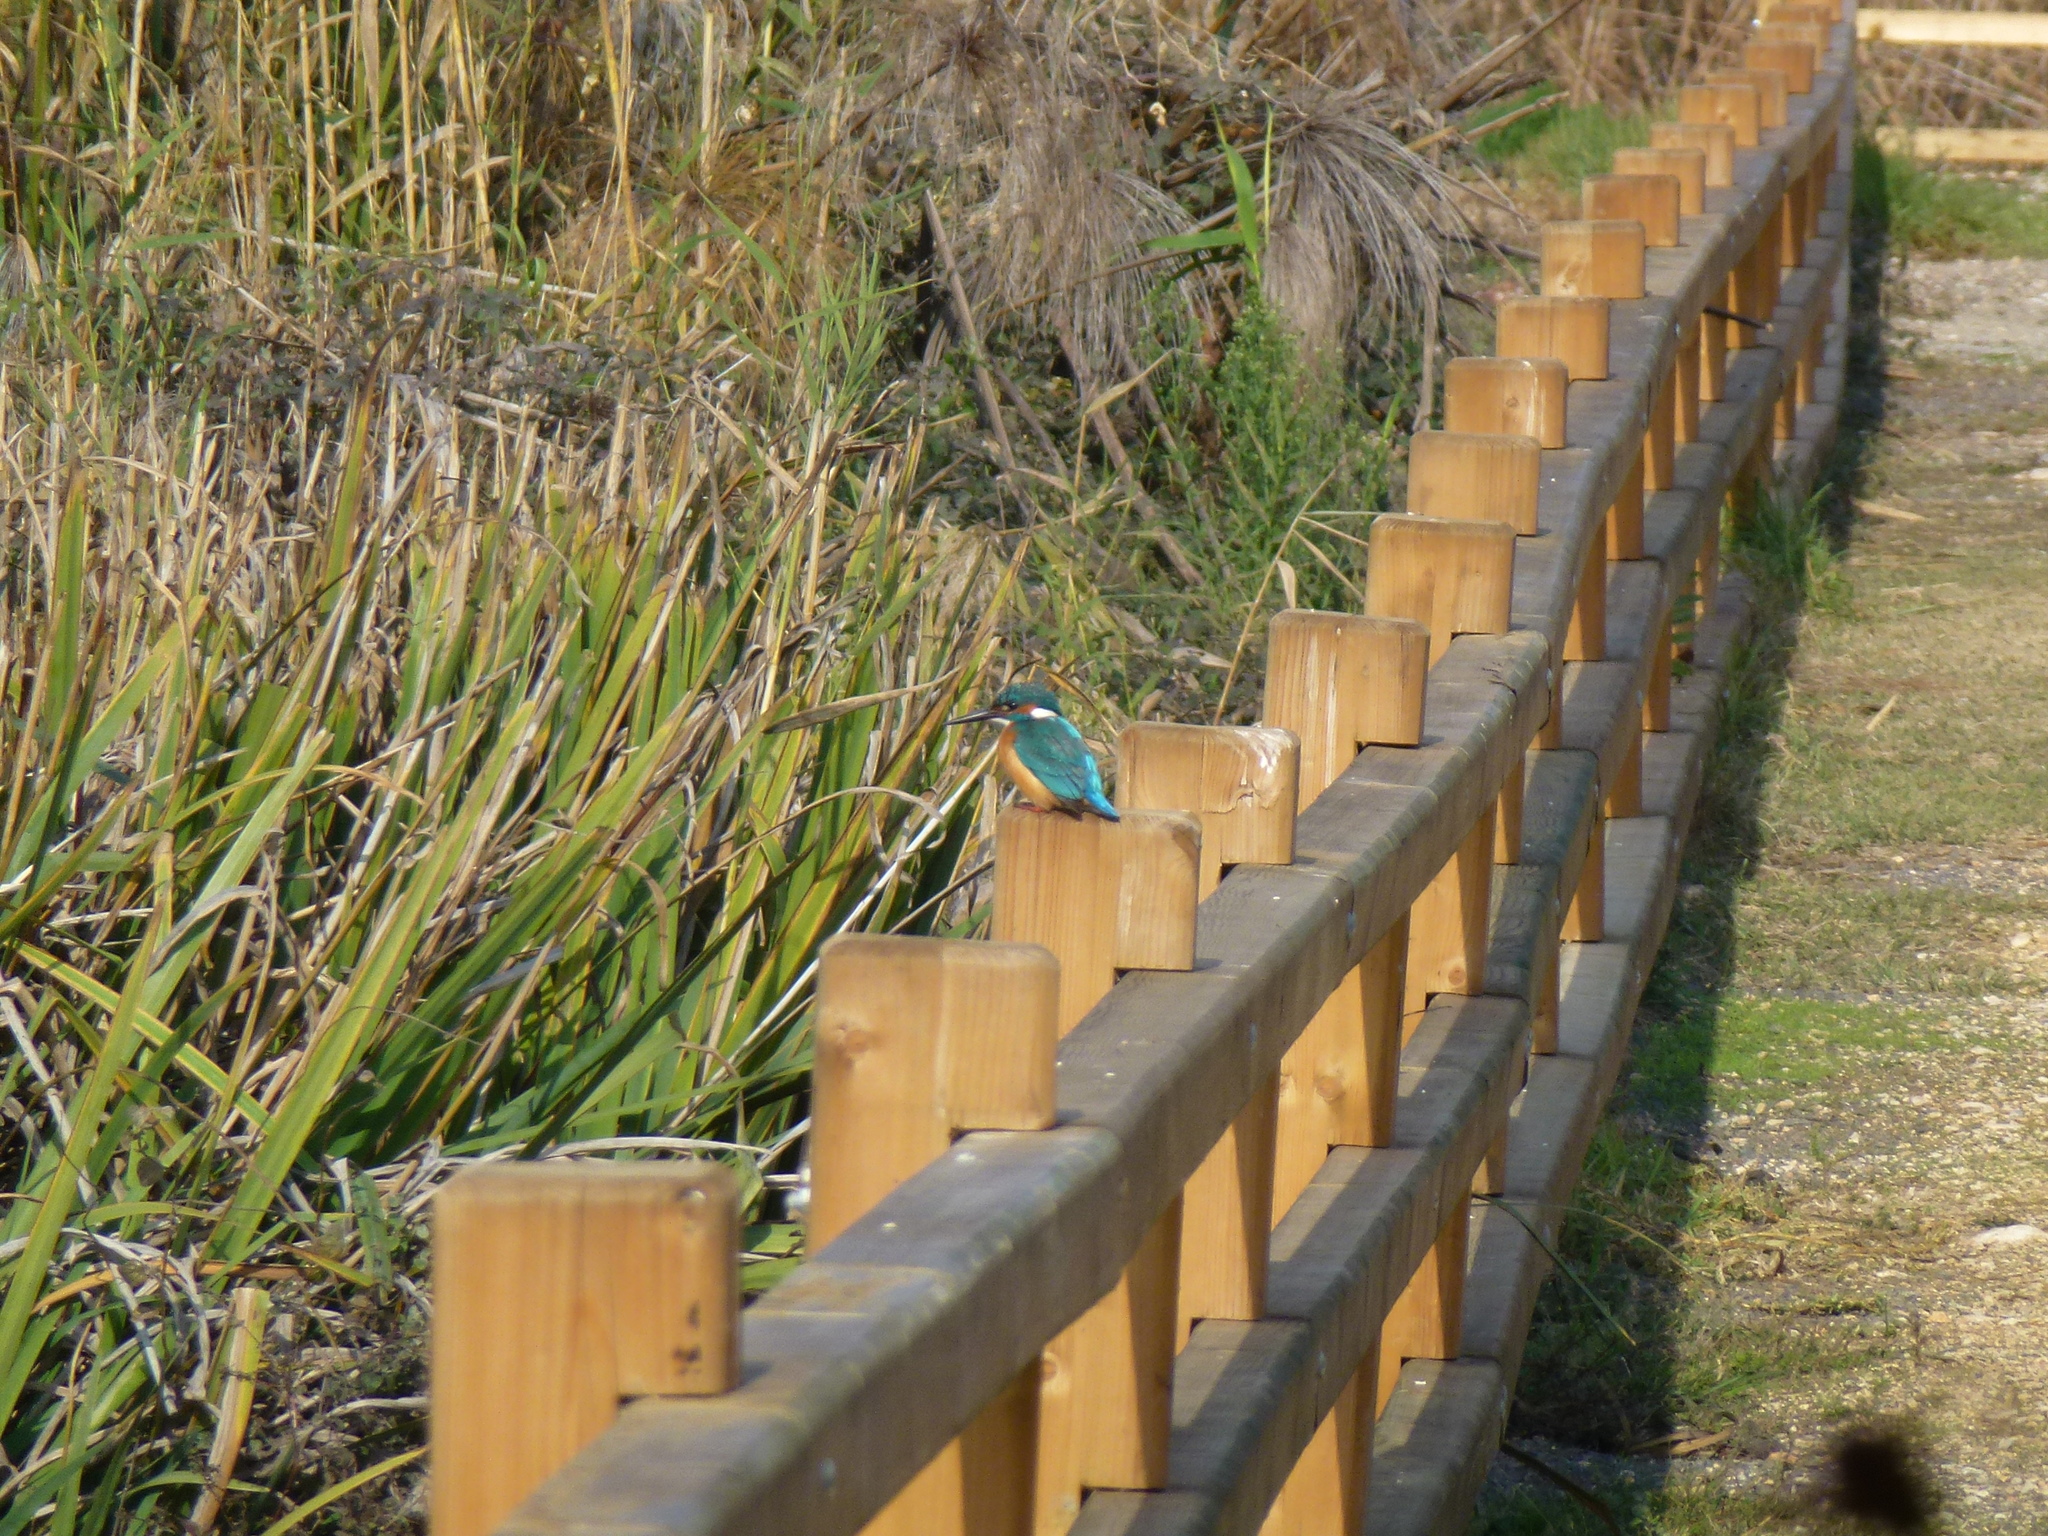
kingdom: Animalia
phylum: Chordata
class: Aves
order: Coraciiformes
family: Alcedinidae
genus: Alcedo
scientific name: Alcedo atthis
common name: Common kingfisher
